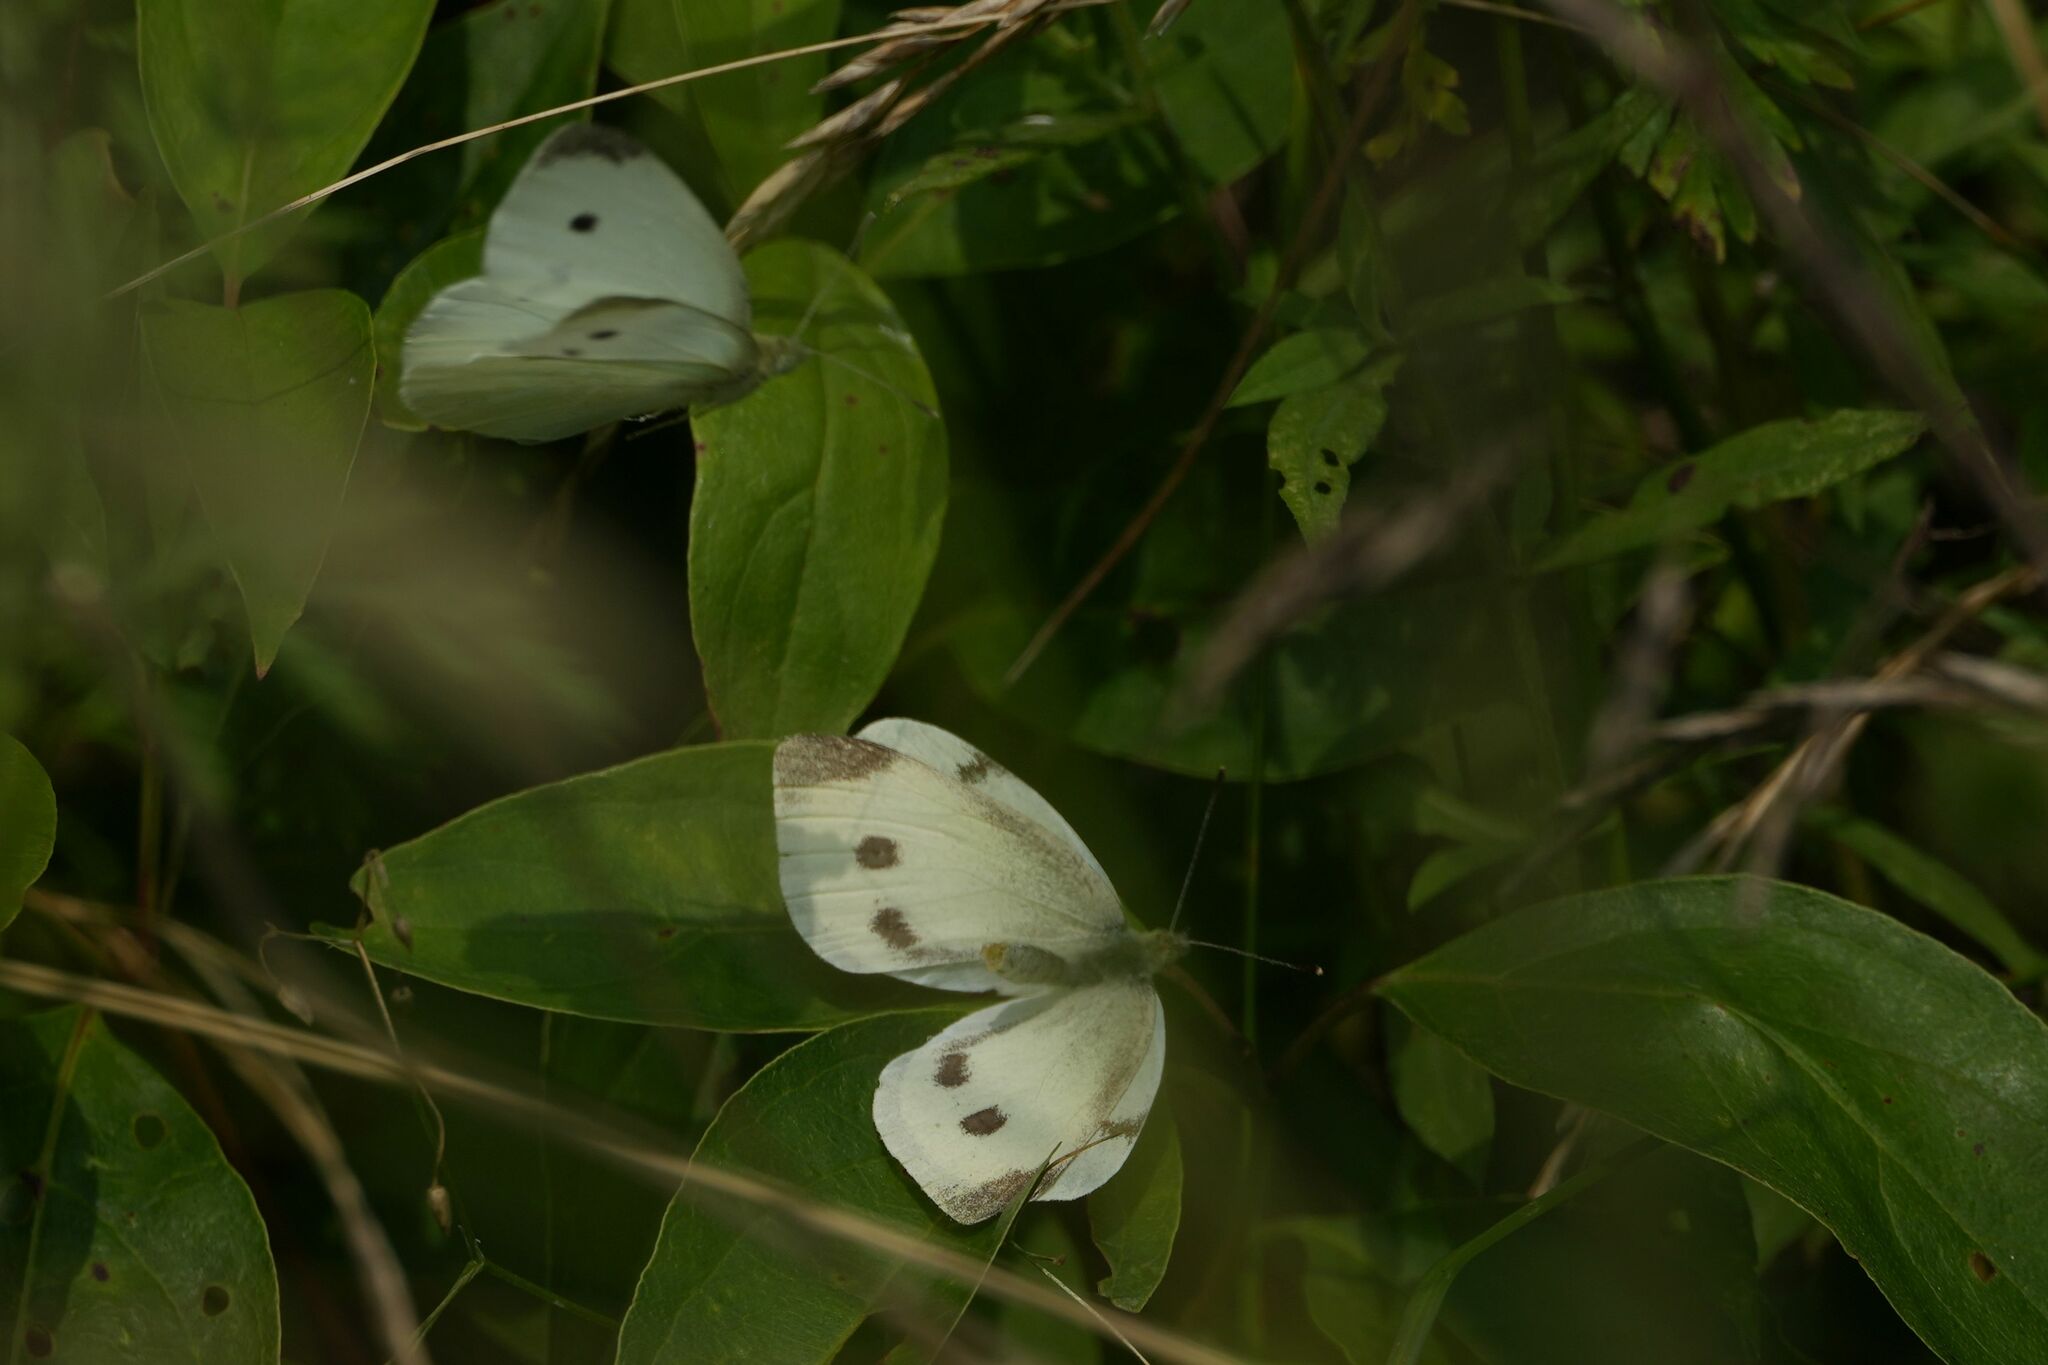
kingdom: Animalia
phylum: Arthropoda
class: Insecta
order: Lepidoptera
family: Pieridae
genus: Pieris
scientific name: Pieris rapae
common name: Small white
